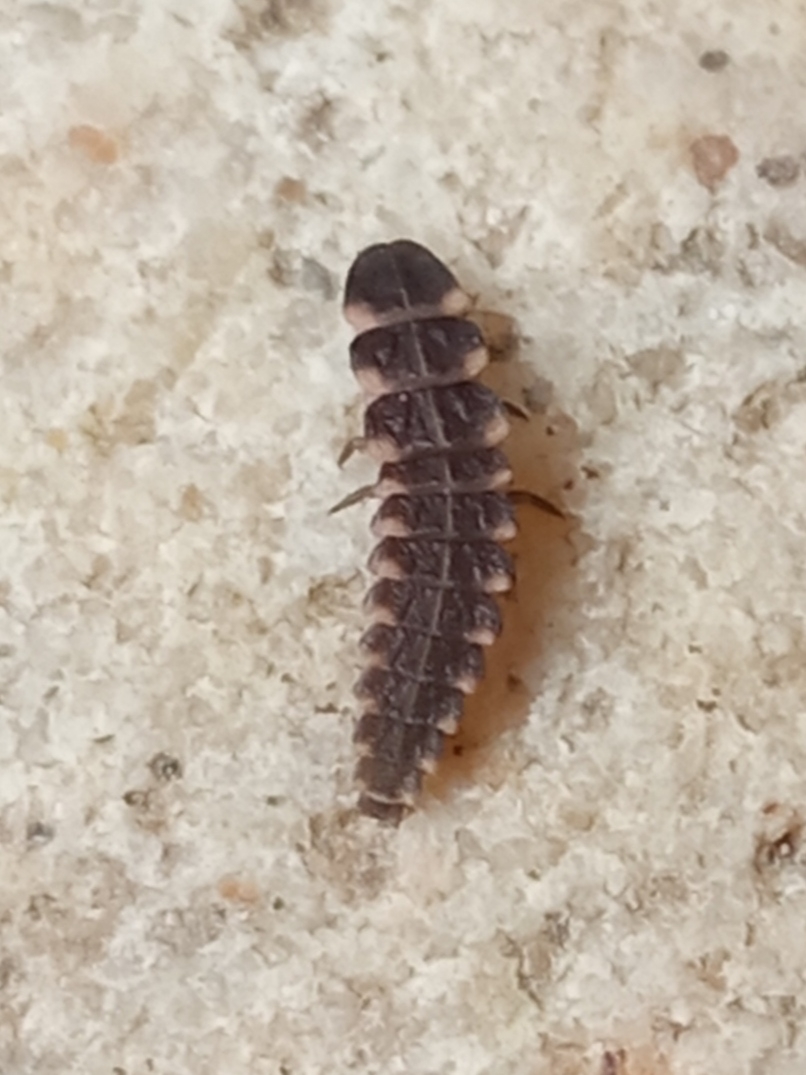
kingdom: Animalia
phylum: Arthropoda
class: Insecta
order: Coleoptera
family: Lampyridae
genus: Lampyris
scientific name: Lampyris noctiluca
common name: Glow-worm
